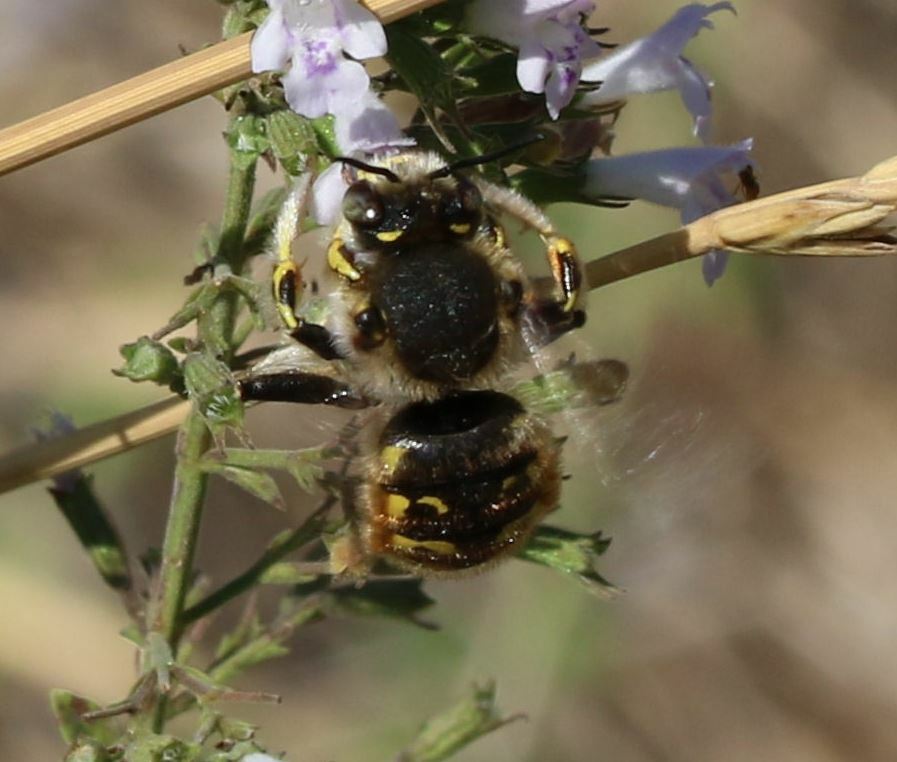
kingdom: Animalia
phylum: Arthropoda
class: Insecta
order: Hymenoptera
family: Megachilidae
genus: Anthidium
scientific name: Anthidium manicatum
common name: Wool carder bee
